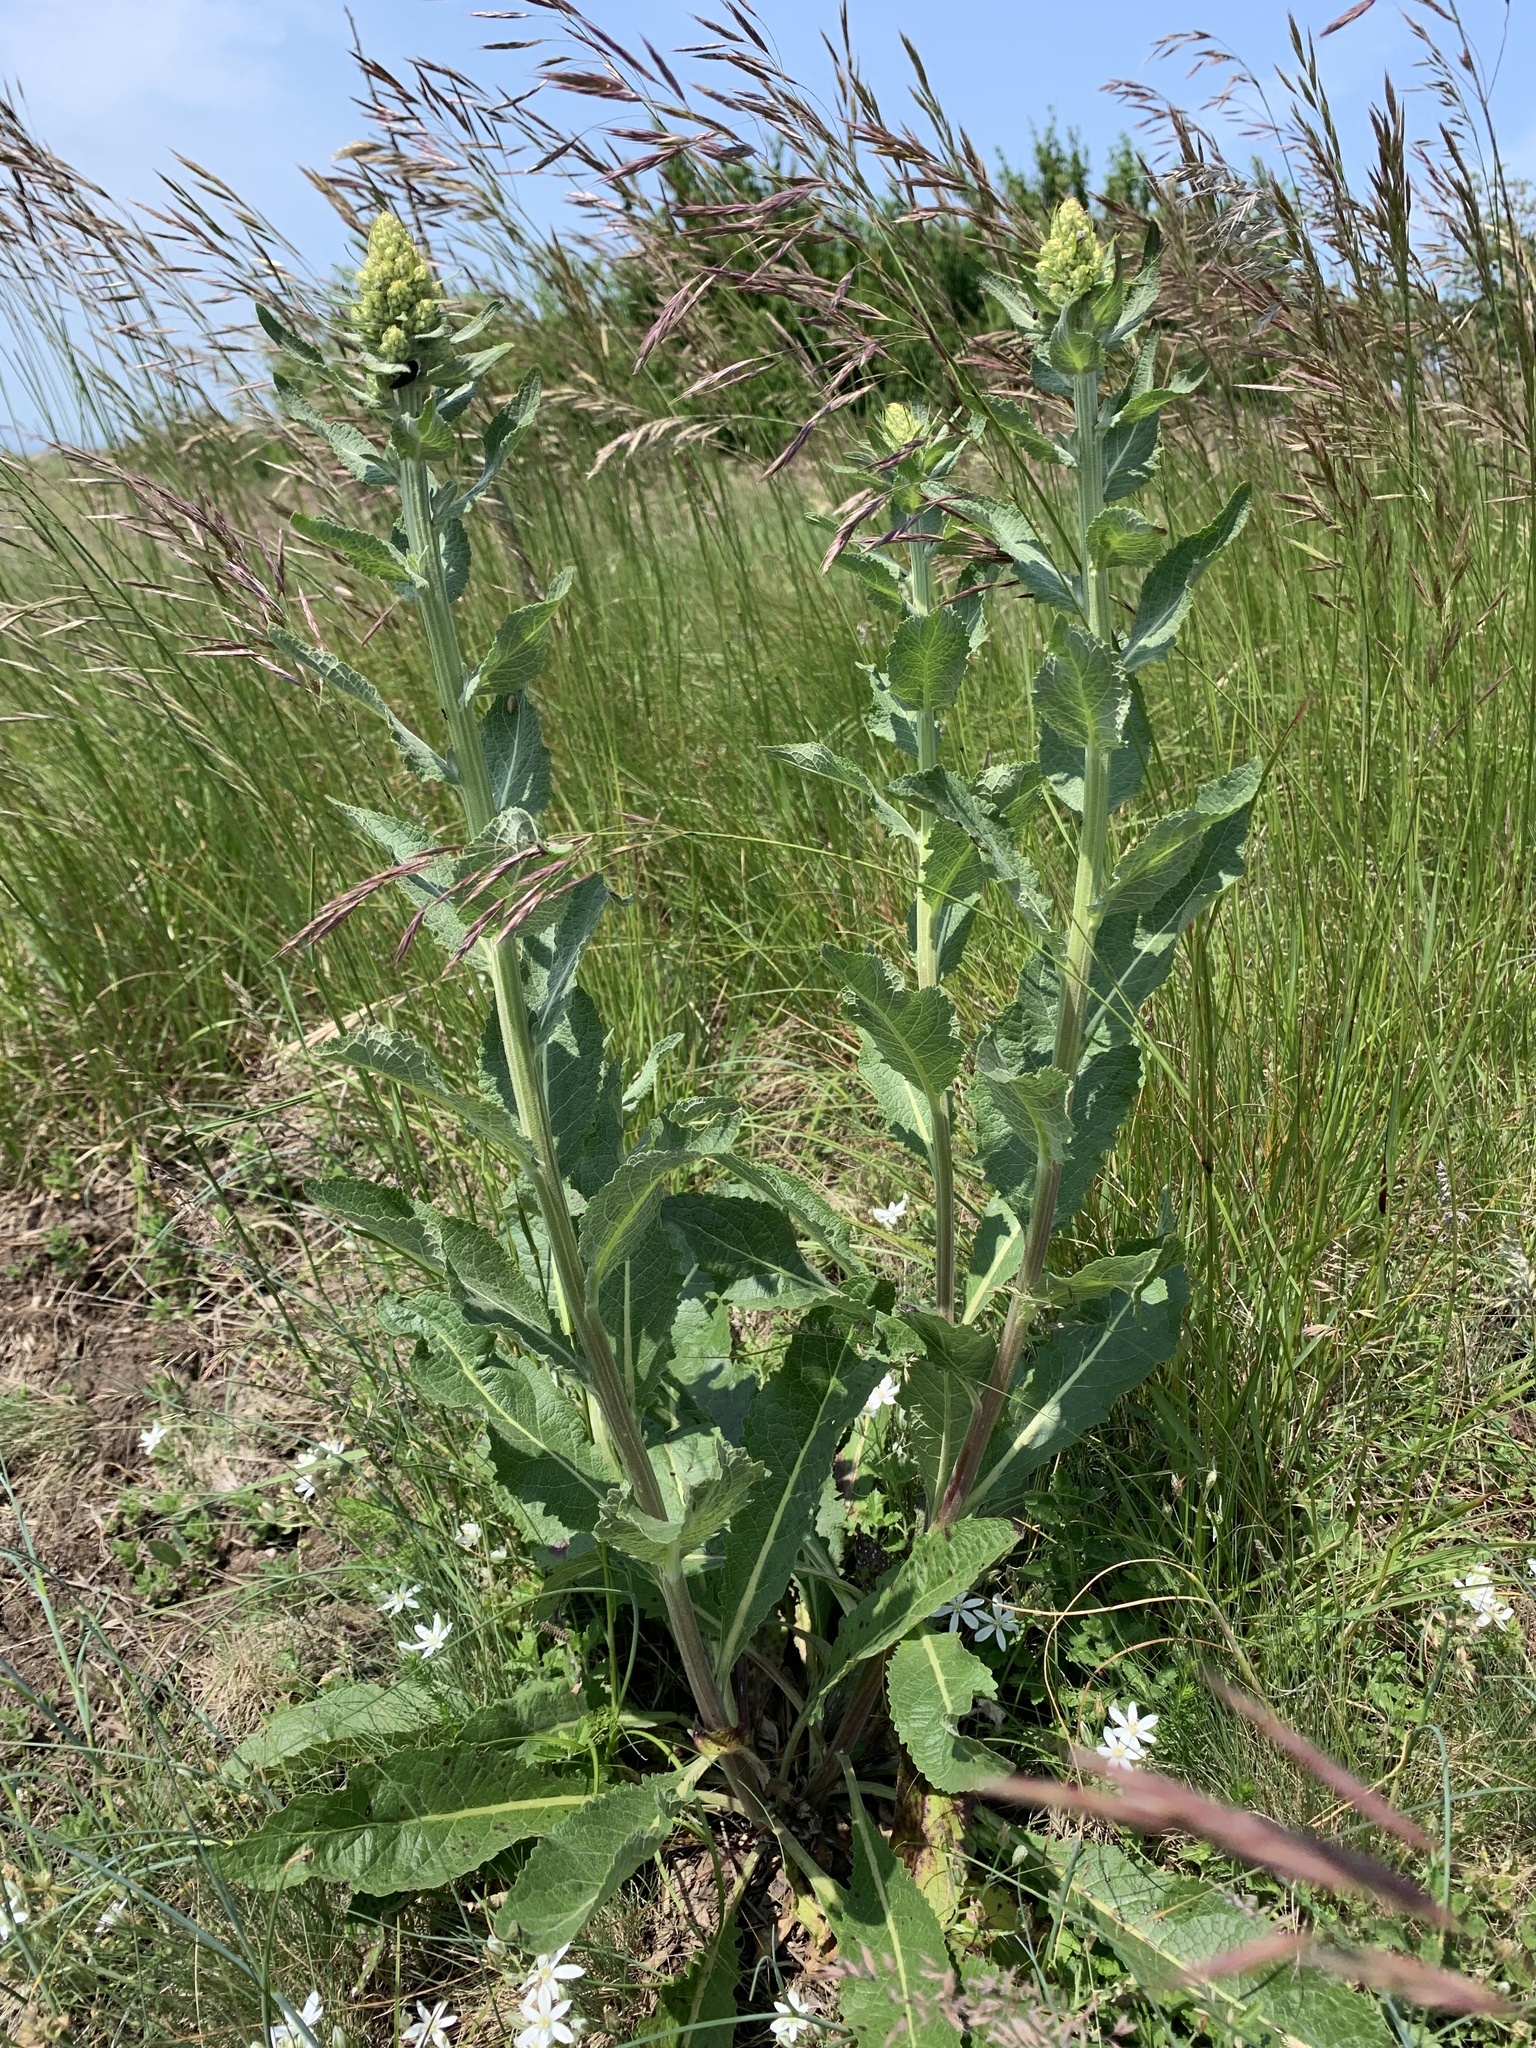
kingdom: Plantae
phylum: Tracheophyta
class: Magnoliopsida
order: Lamiales
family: Scrophulariaceae
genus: Verbascum
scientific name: Verbascum lychnitis
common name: White mullein
